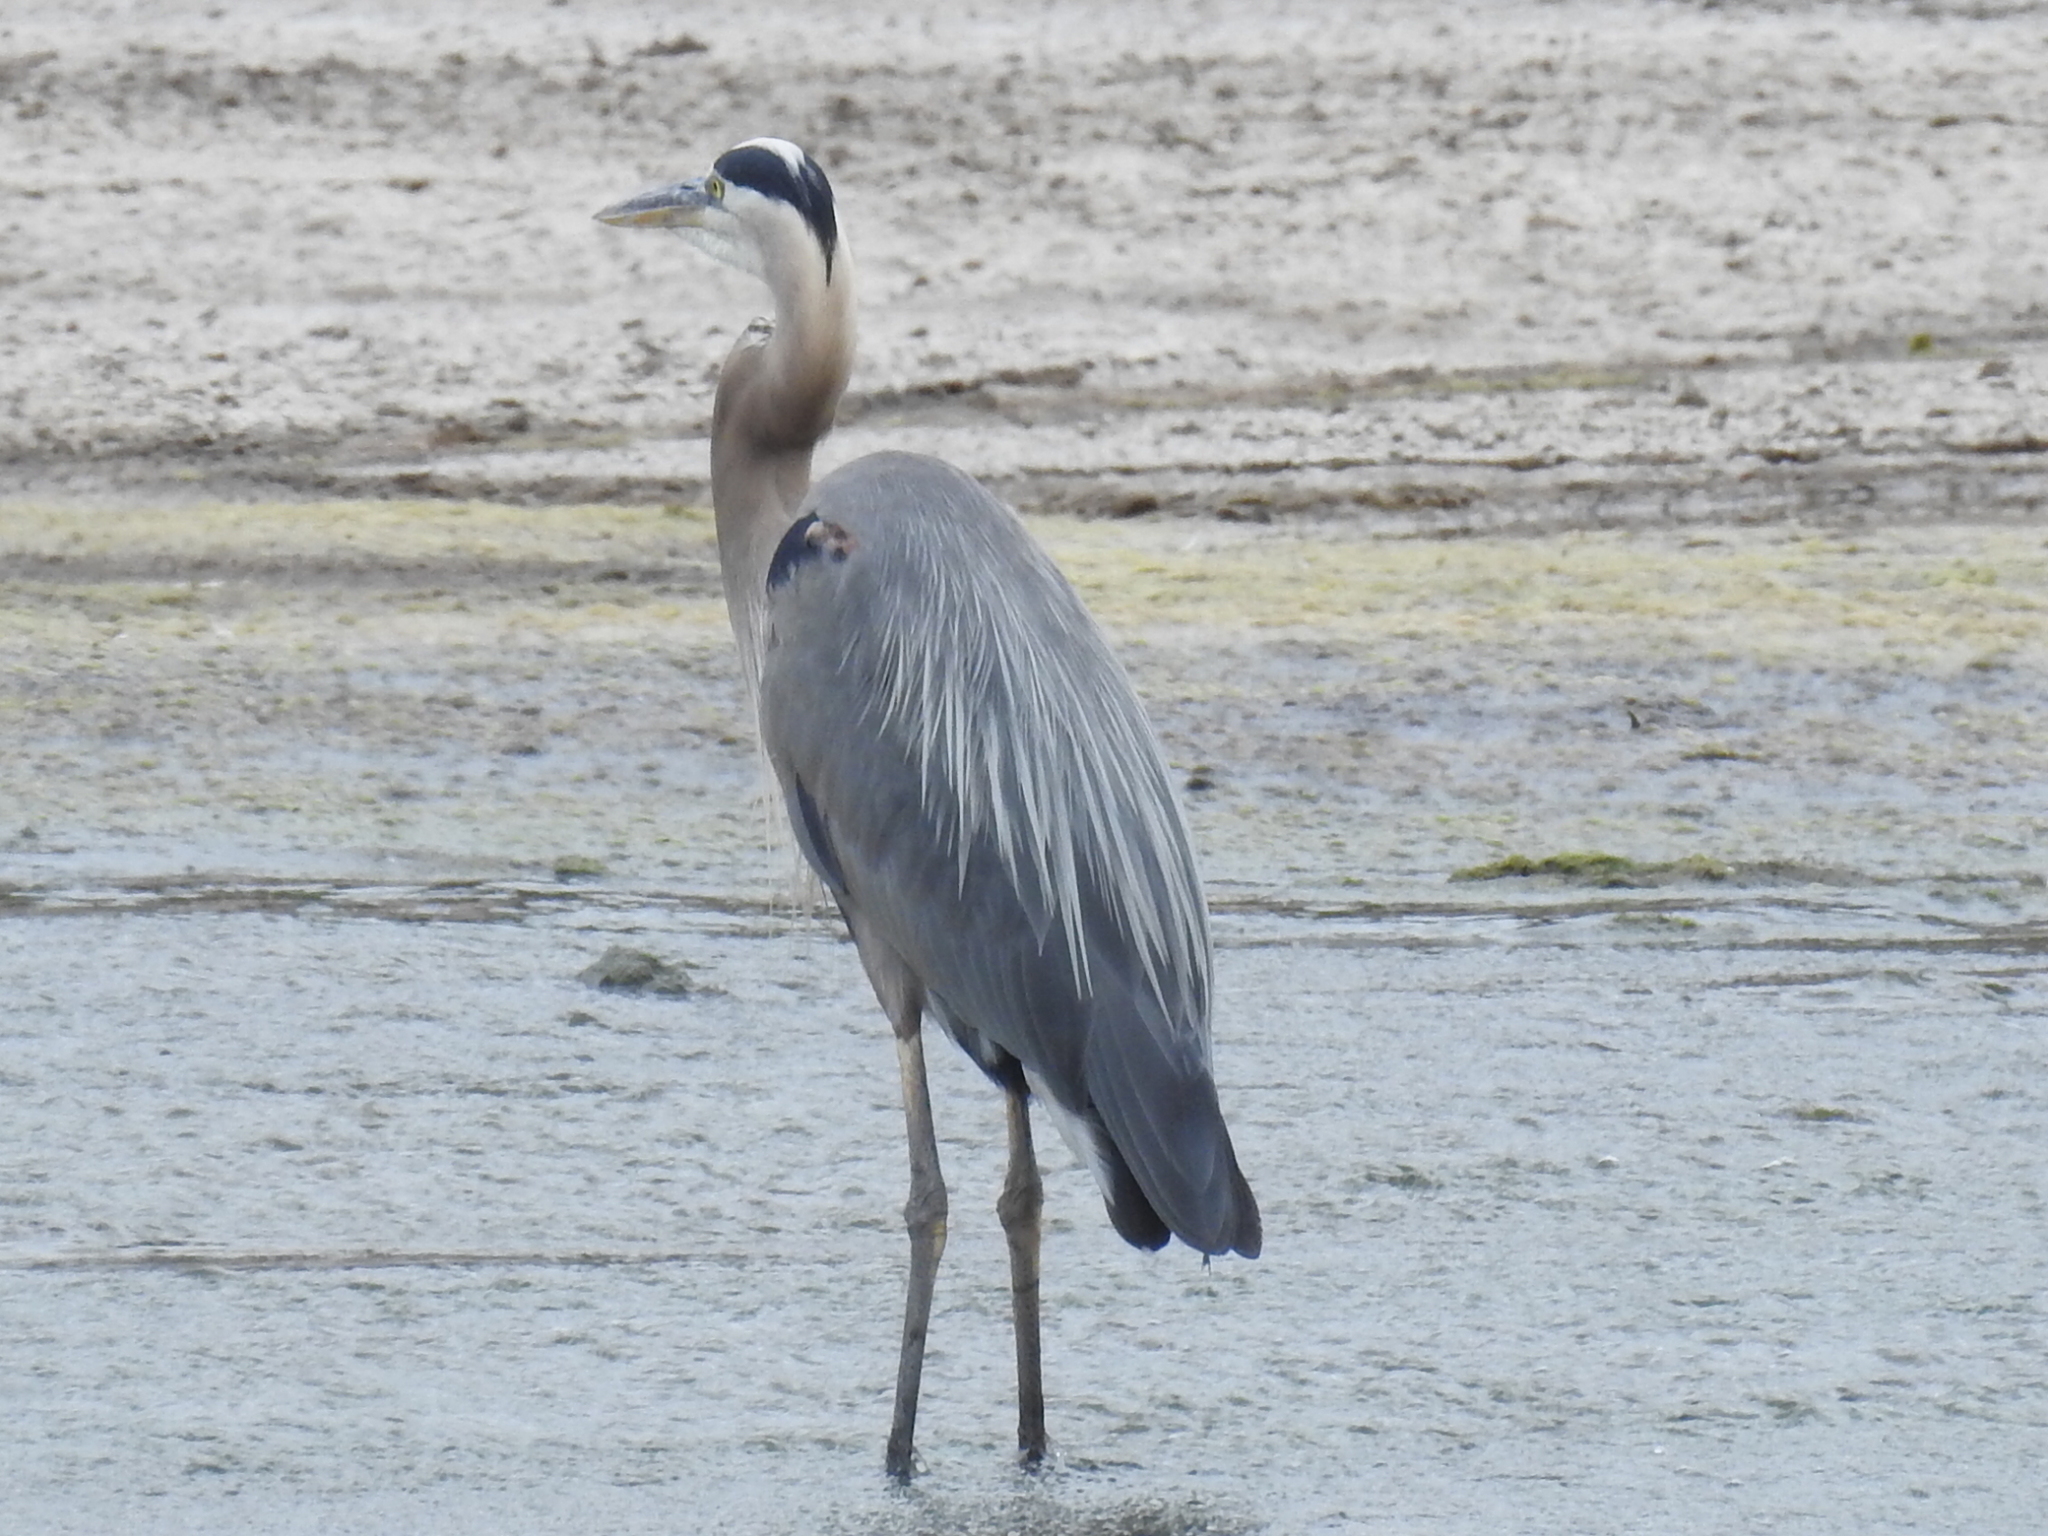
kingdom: Animalia
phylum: Chordata
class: Aves
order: Pelecaniformes
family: Ardeidae
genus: Ardea
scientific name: Ardea herodias
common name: Great blue heron
